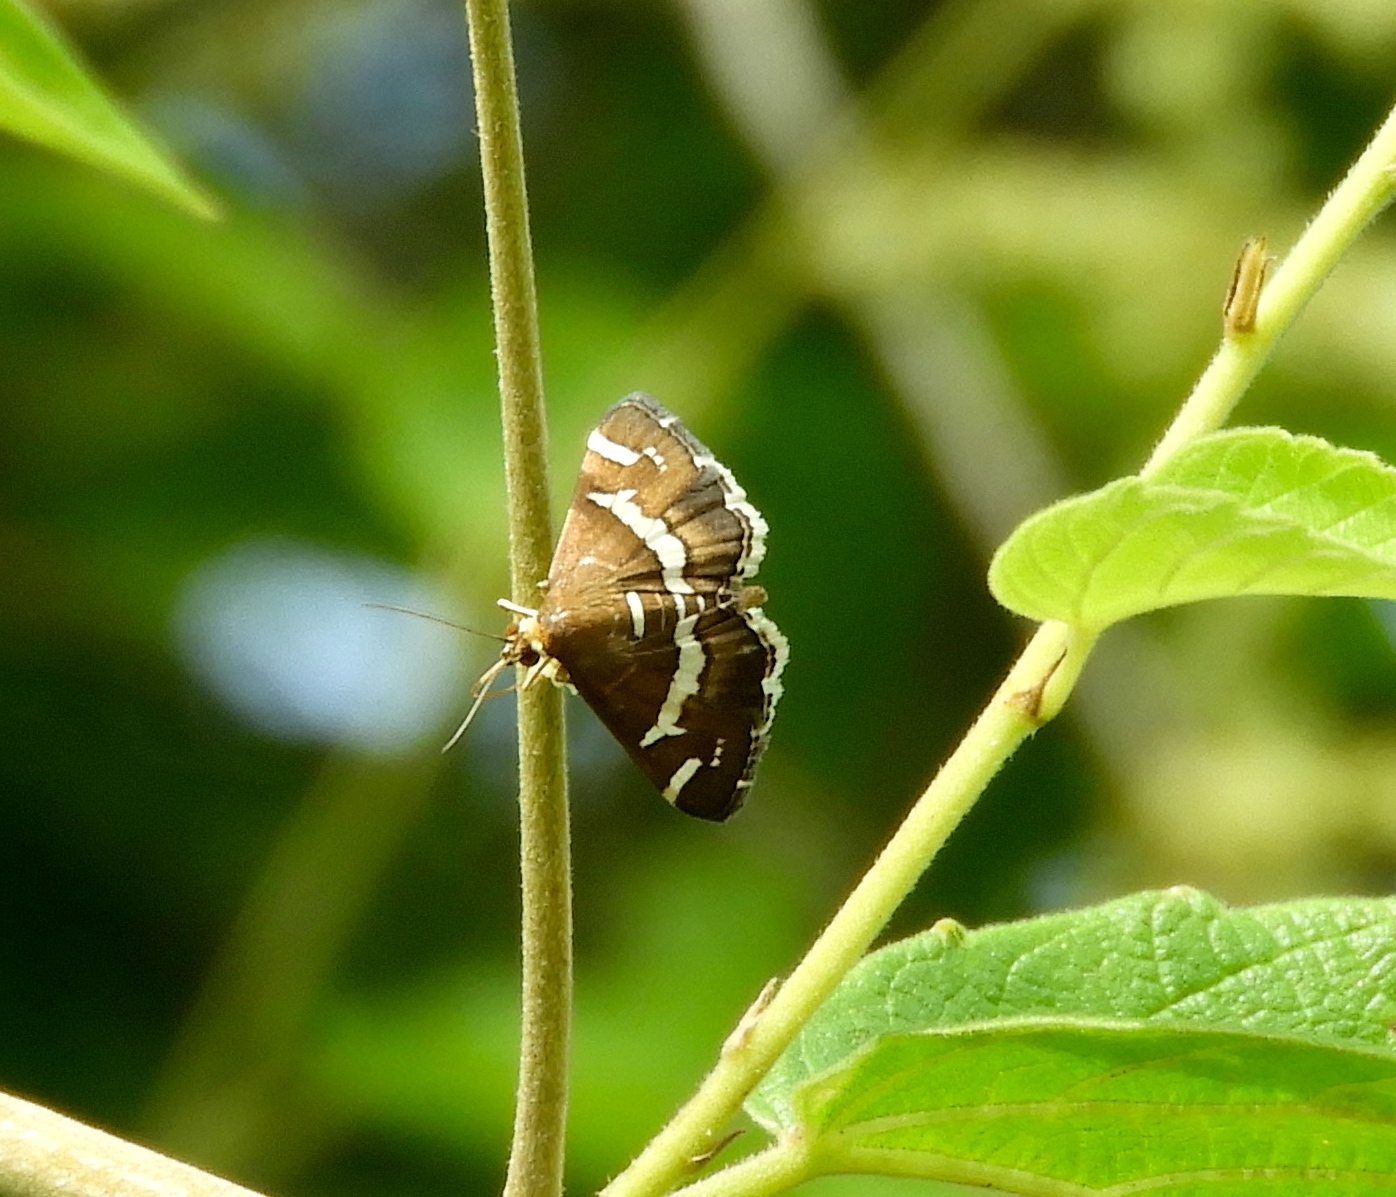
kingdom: Animalia
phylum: Arthropoda
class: Insecta
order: Lepidoptera
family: Crambidae
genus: Spoladea
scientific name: Spoladea recurvalis
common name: Beet webworm moth
